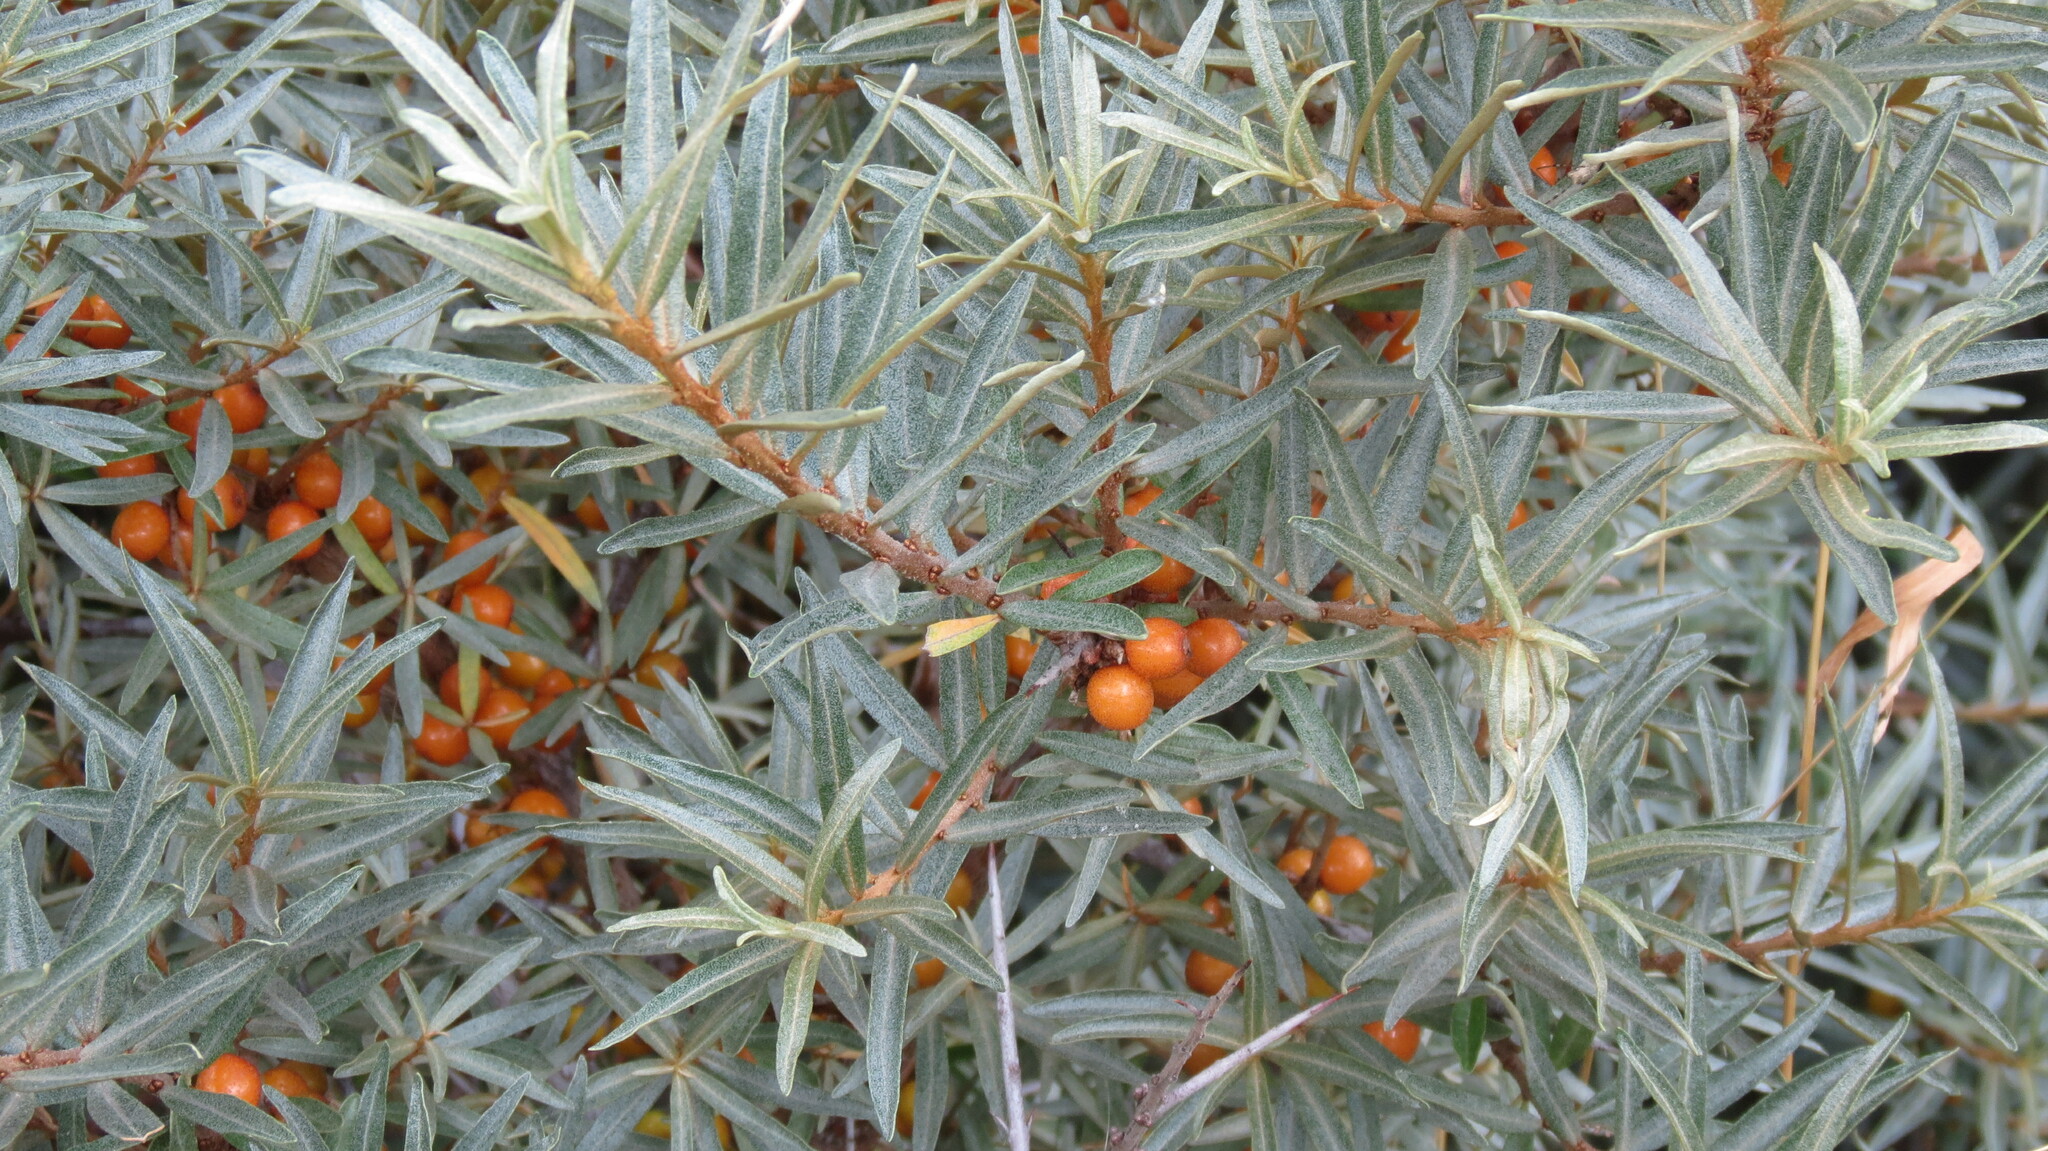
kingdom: Plantae
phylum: Tracheophyta
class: Magnoliopsida
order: Rosales
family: Elaeagnaceae
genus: Hippophae
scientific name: Hippophae rhamnoides
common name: Sea-buckthorn
